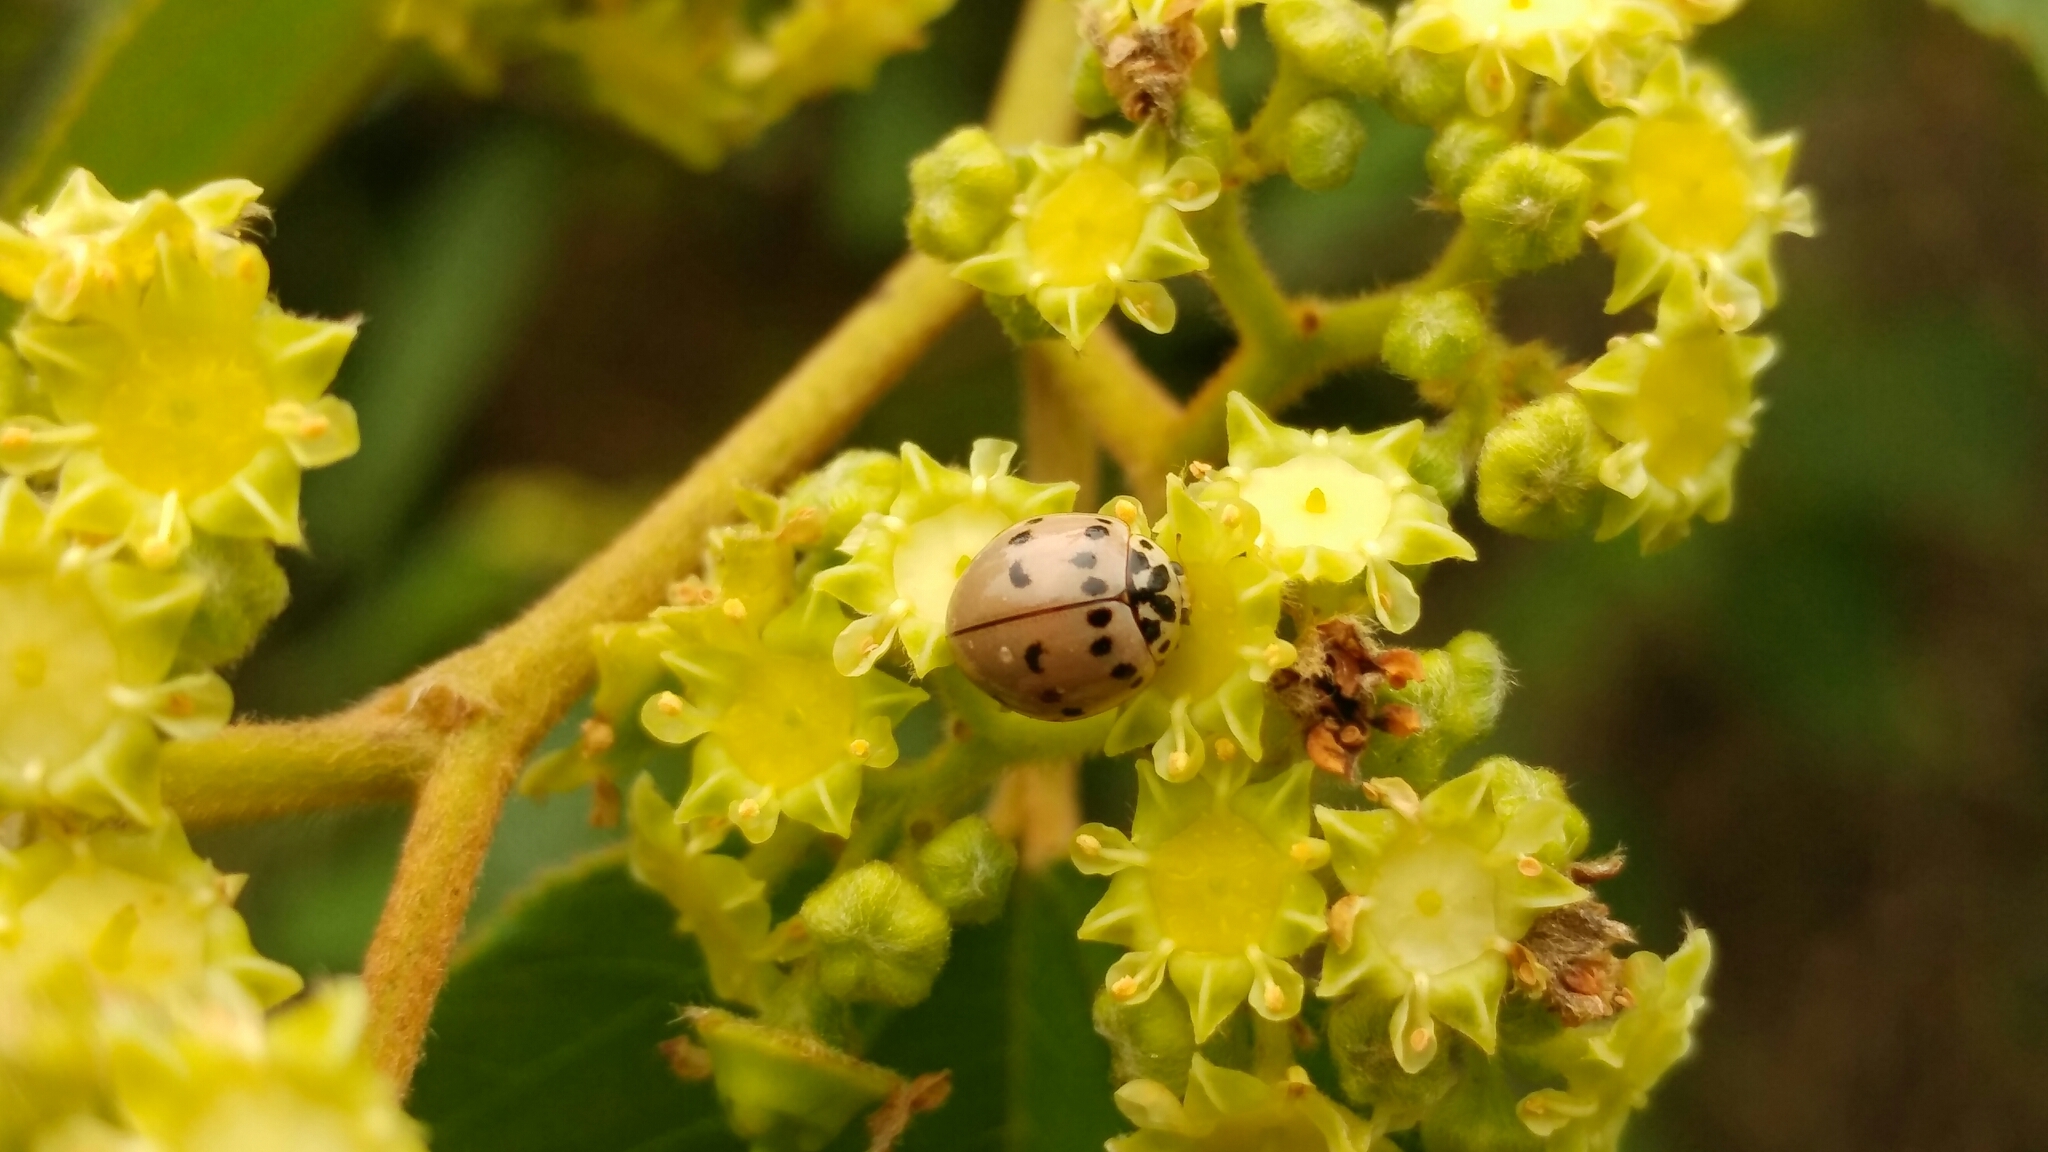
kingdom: Animalia
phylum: Arthropoda
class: Insecta
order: Coleoptera
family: Coccinellidae
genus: Olla
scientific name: Olla v-nigrum
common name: Ashy gray lady beetle
